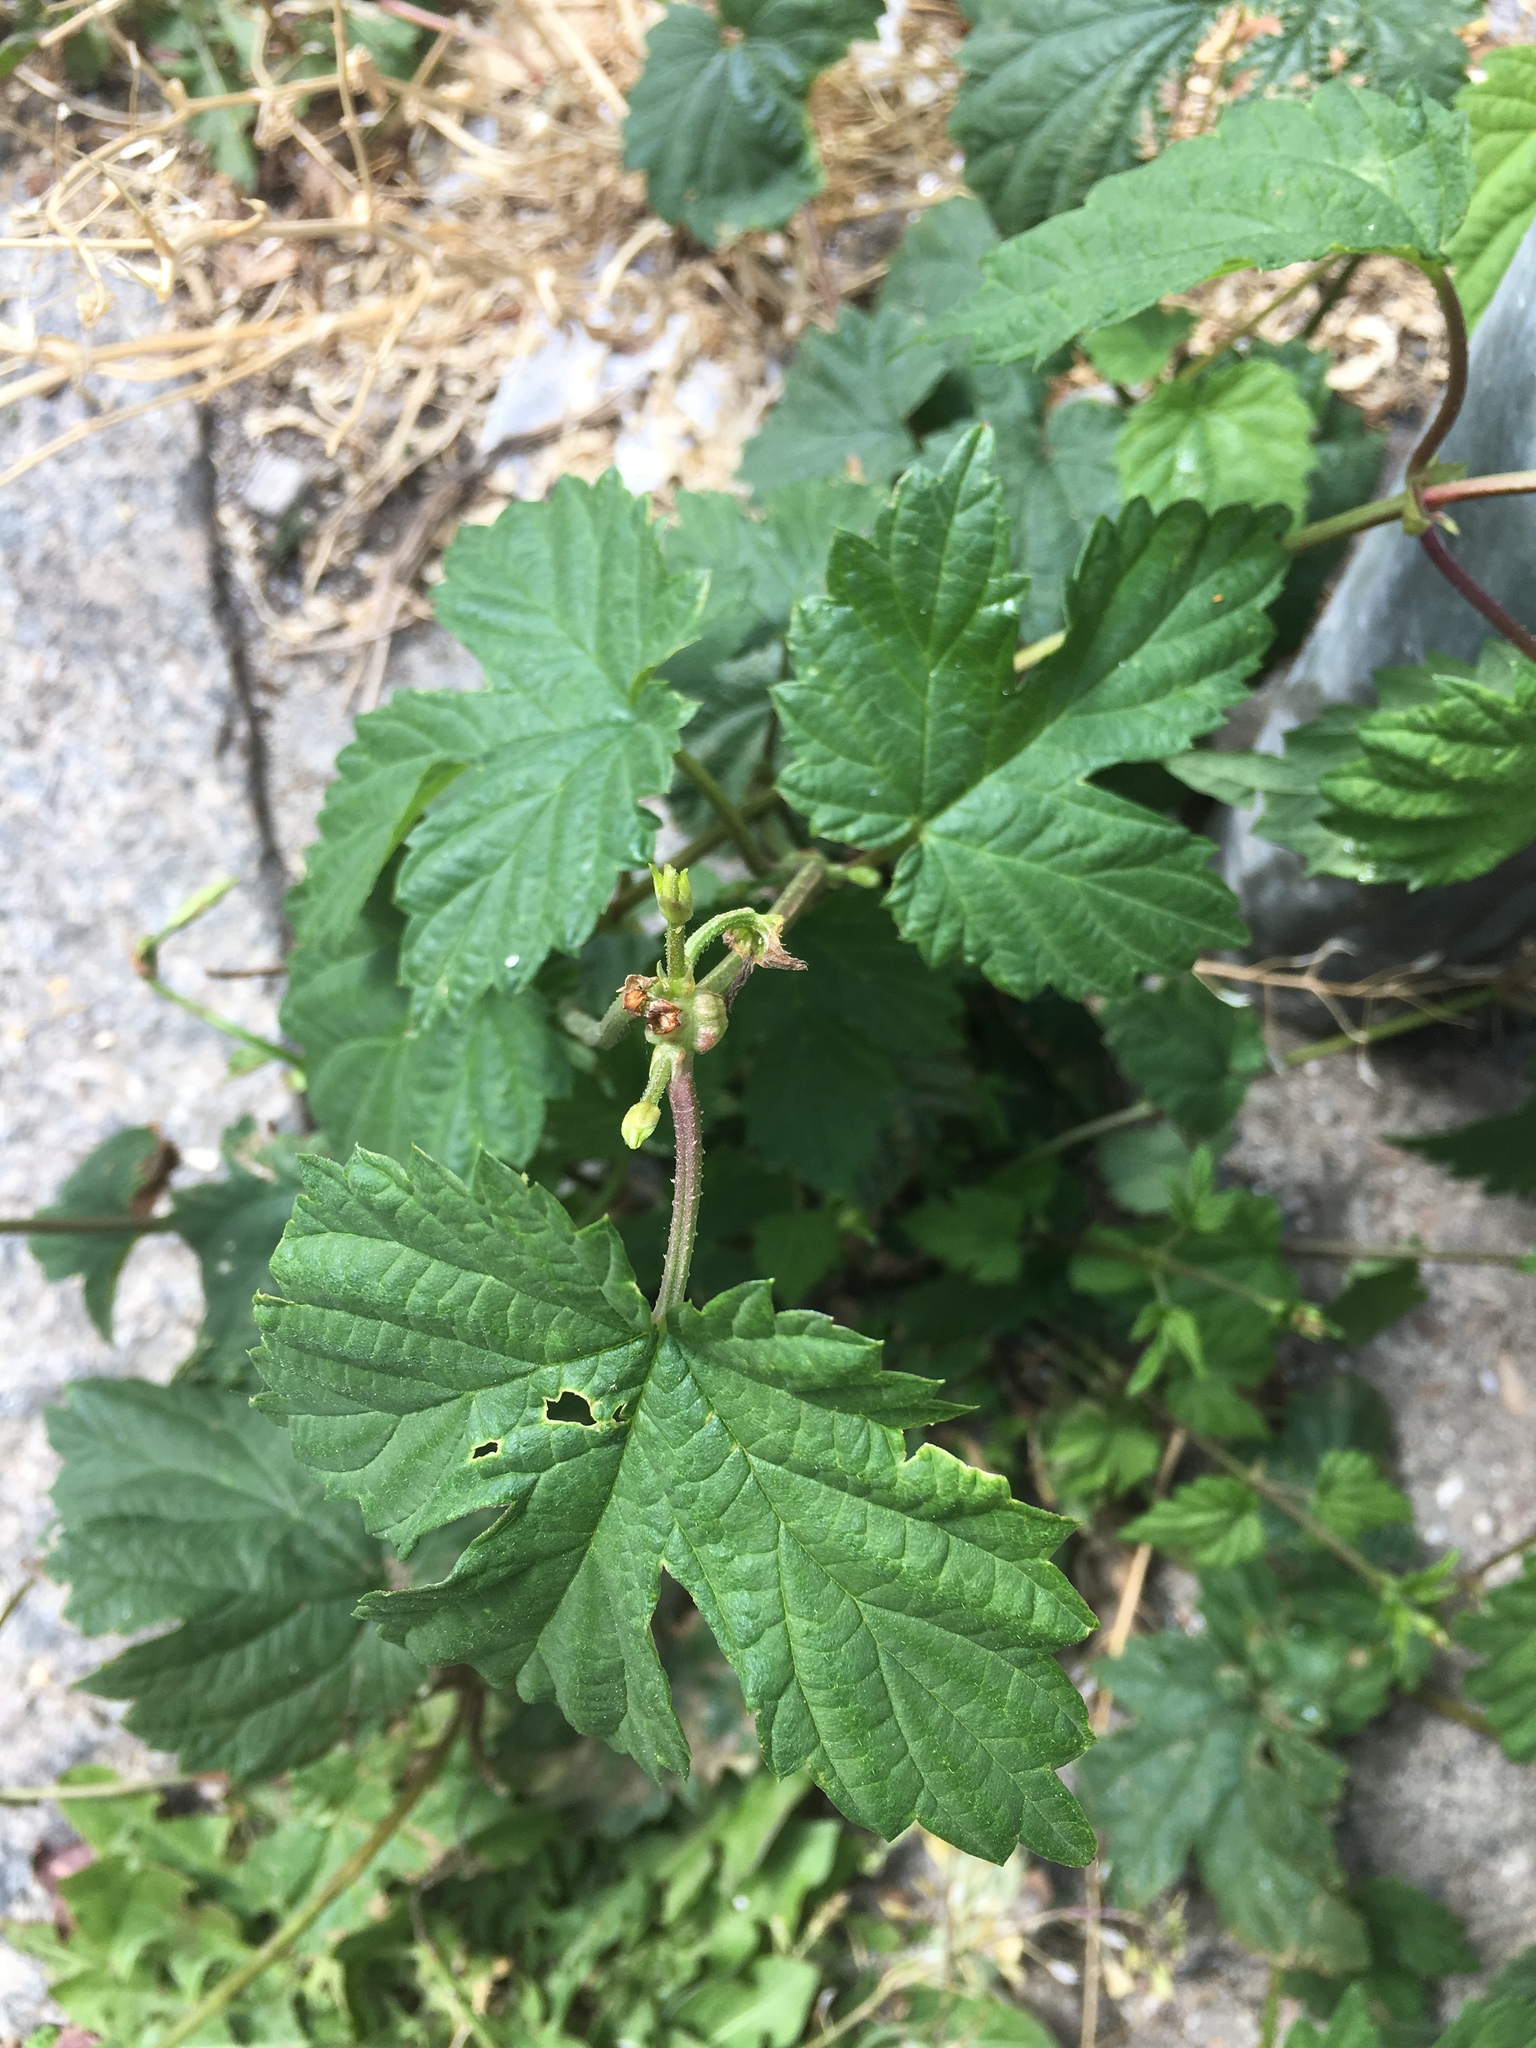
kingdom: Plantae
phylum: Tracheophyta
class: Magnoliopsida
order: Rosales
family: Cannabaceae
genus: Humulus
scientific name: Humulus lupulus
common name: Hop
